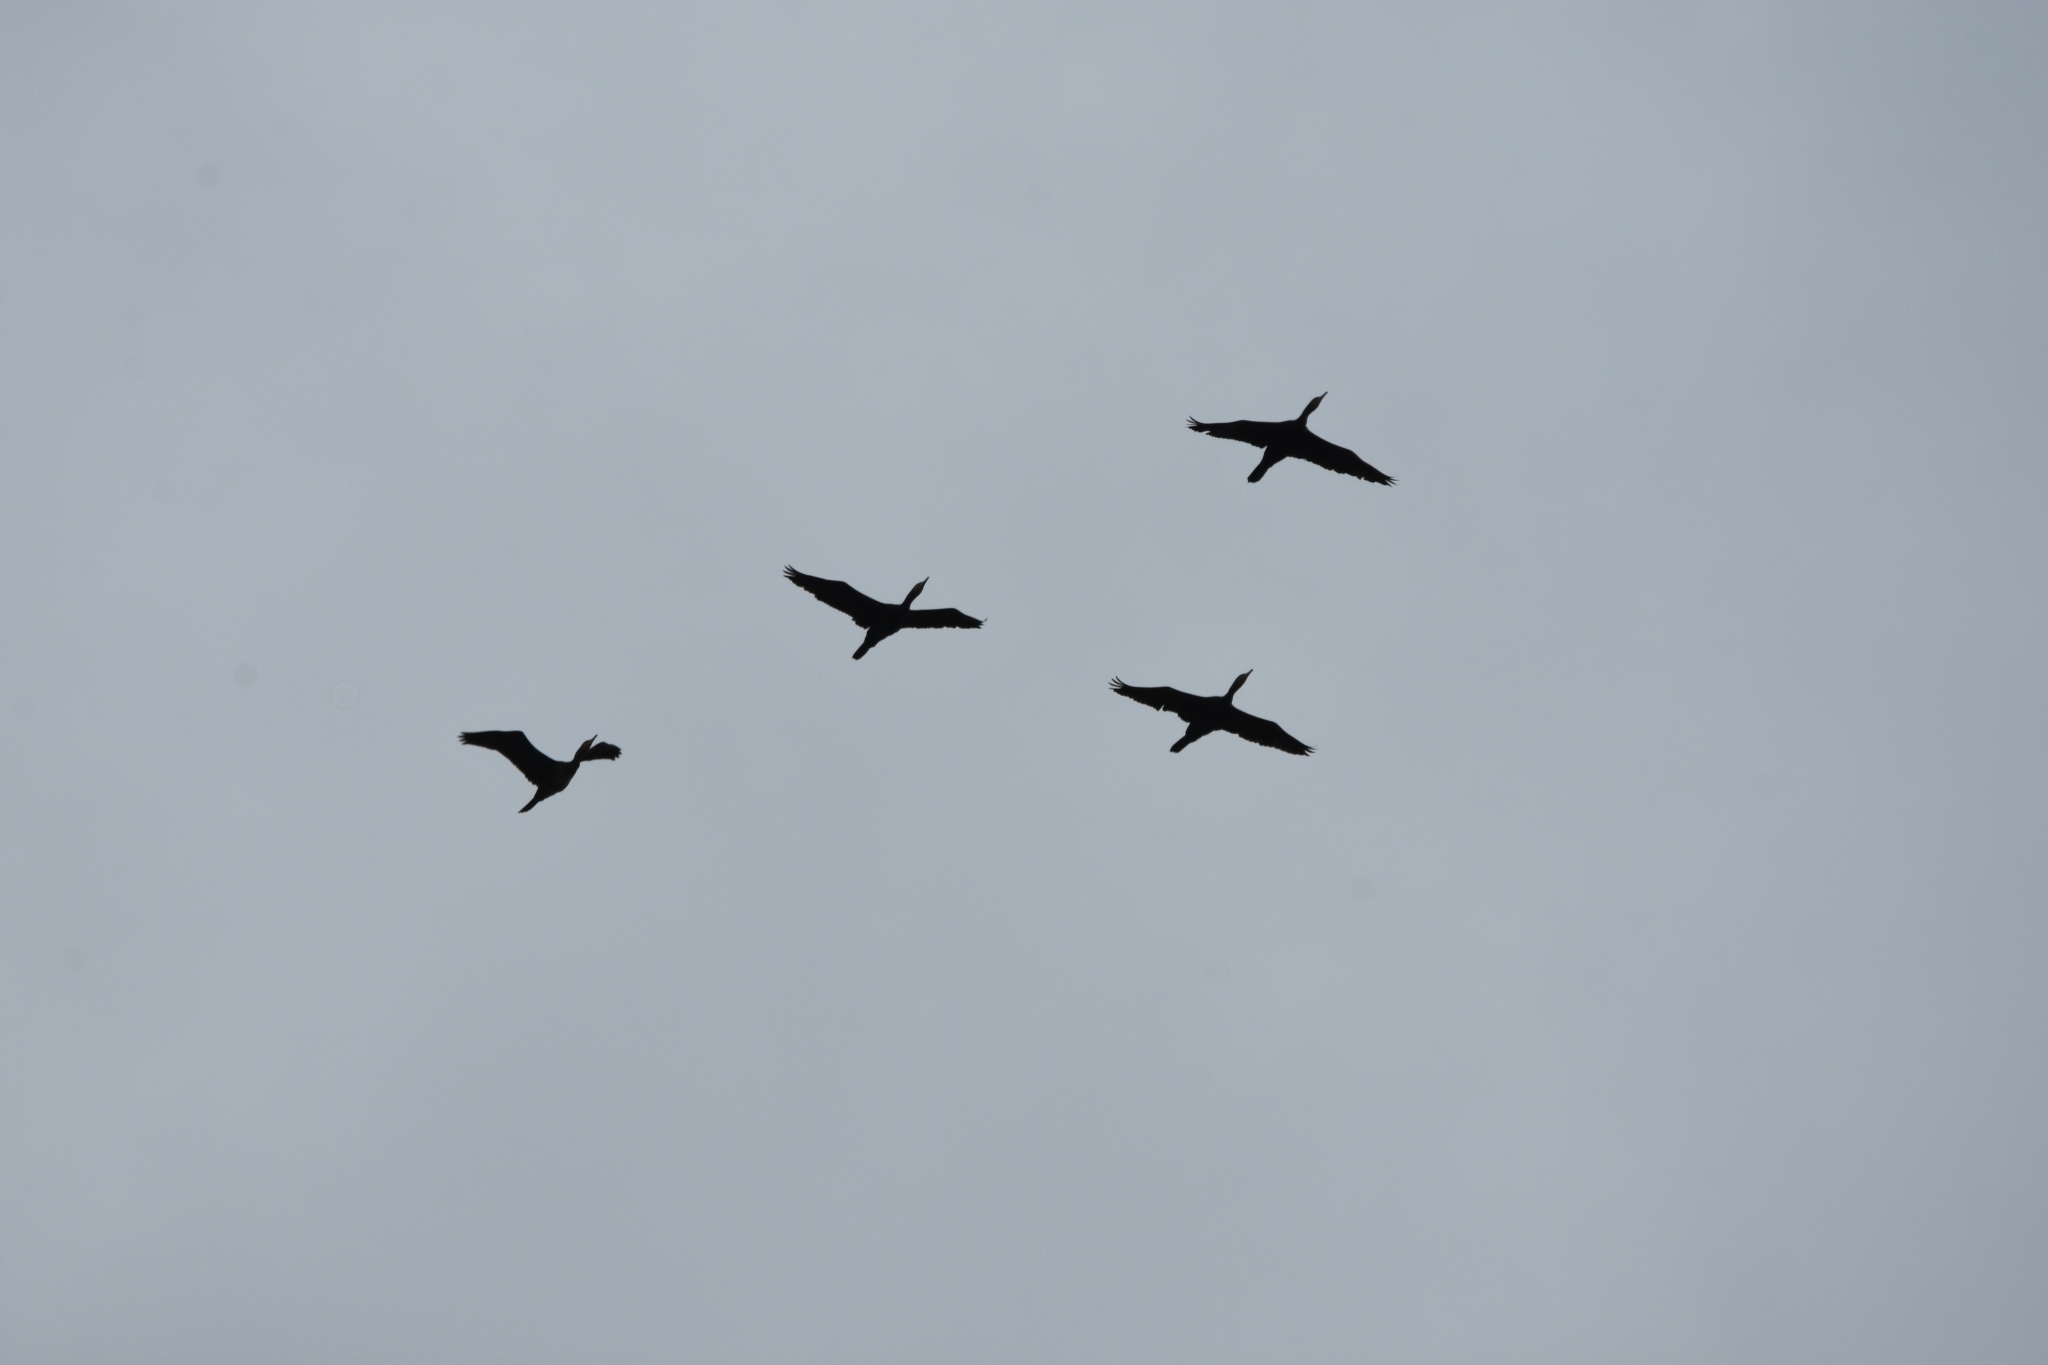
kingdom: Animalia
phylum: Chordata
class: Aves
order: Suliformes
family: Phalacrocoracidae
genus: Phalacrocorax
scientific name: Phalacrocorax carbo
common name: Great cormorant
